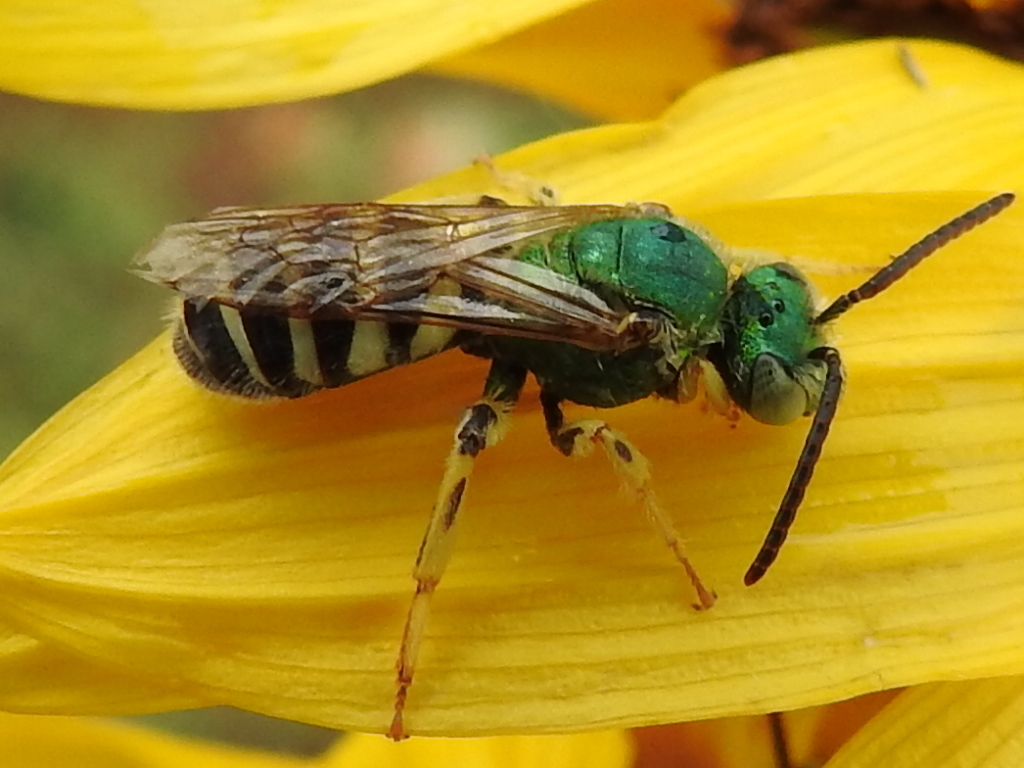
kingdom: Animalia
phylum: Arthropoda
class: Insecta
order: Hymenoptera
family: Halictidae
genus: Agapostemon
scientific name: Agapostemon
